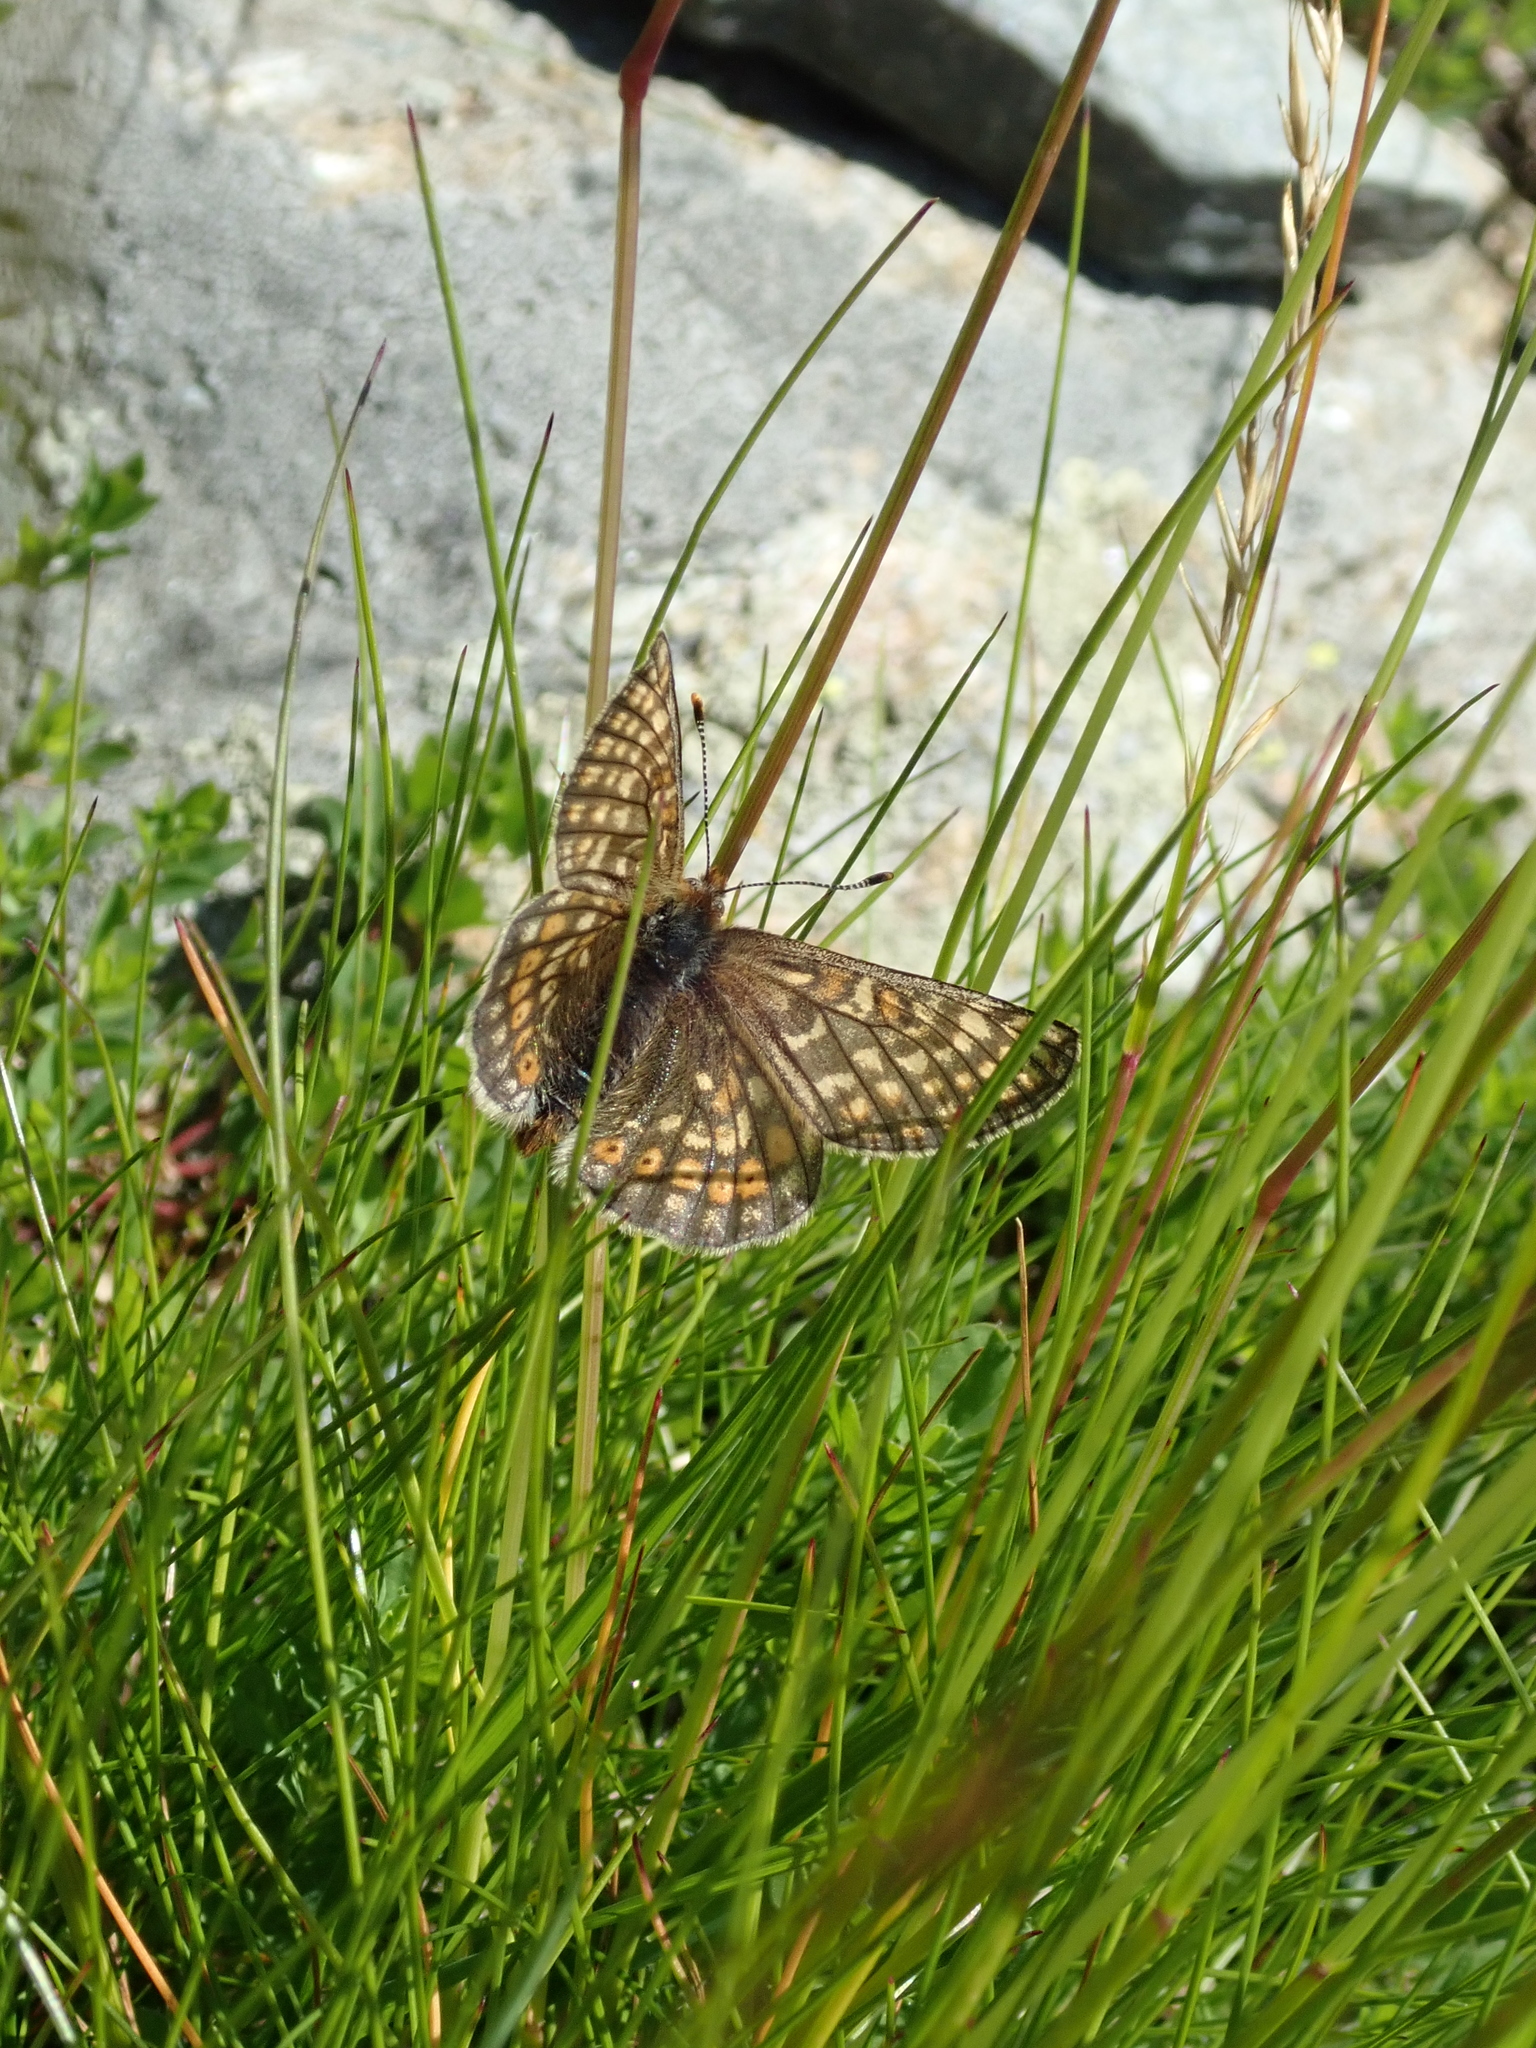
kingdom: Animalia
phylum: Arthropoda
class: Insecta
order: Lepidoptera
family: Nymphalidae
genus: Euphydryas
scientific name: Euphydryas aurinia
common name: Marsh fritillary
